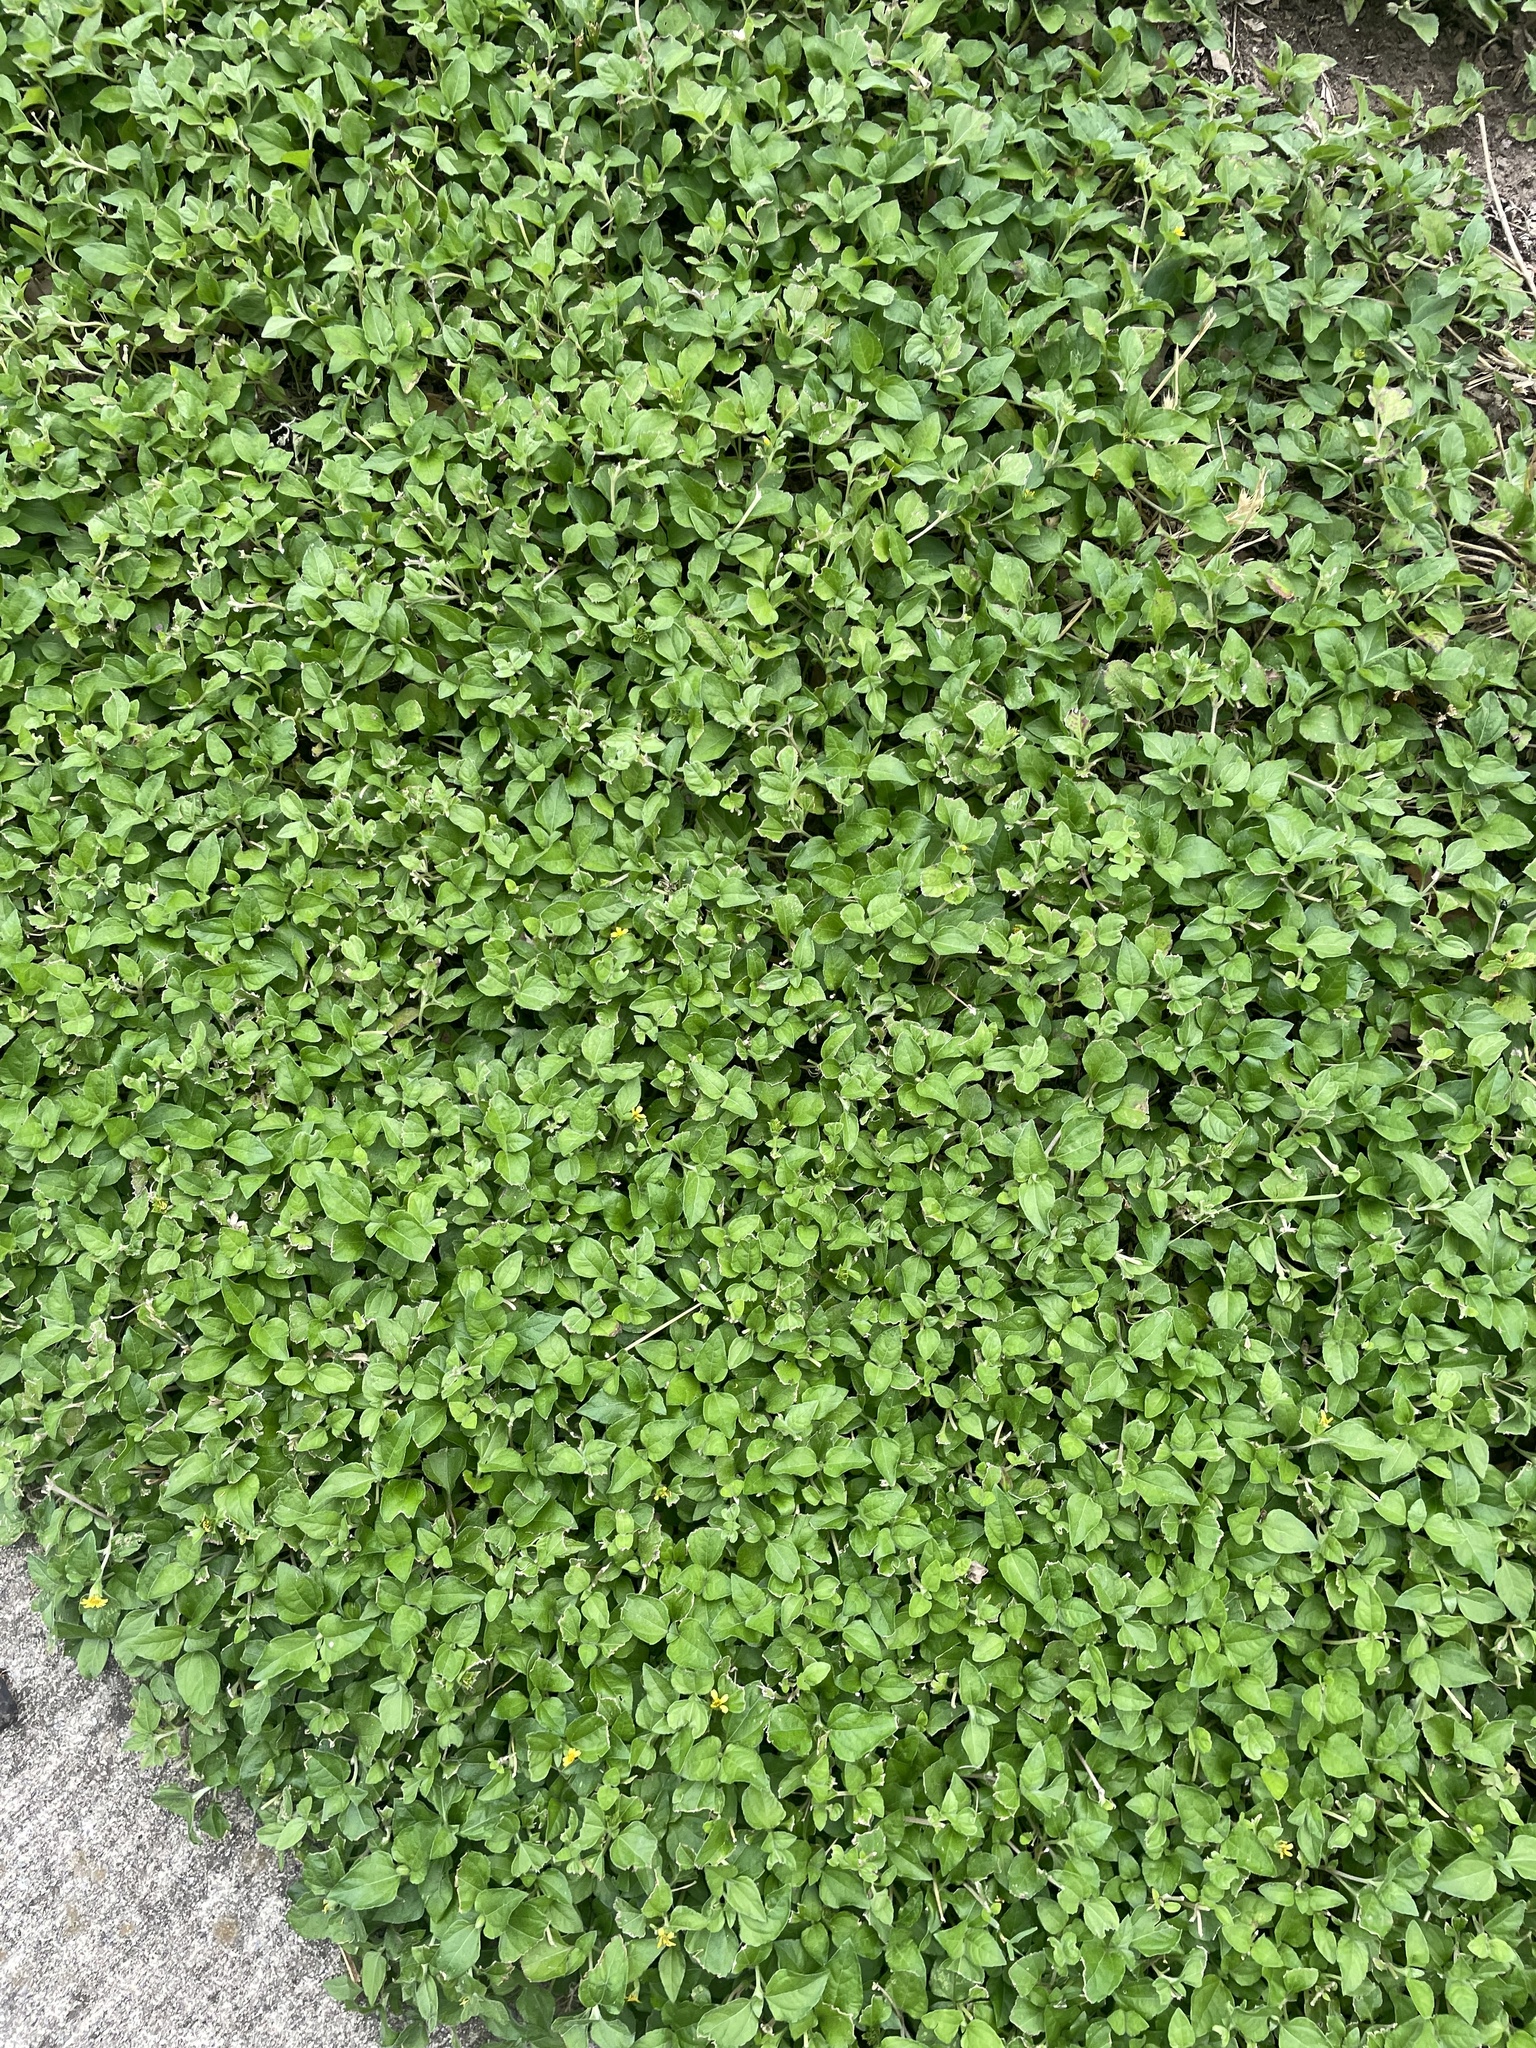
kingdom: Plantae
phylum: Tracheophyta
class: Magnoliopsida
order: Asterales
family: Asteraceae
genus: Calyptocarpus
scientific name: Calyptocarpus vialis
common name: Straggler daisy
